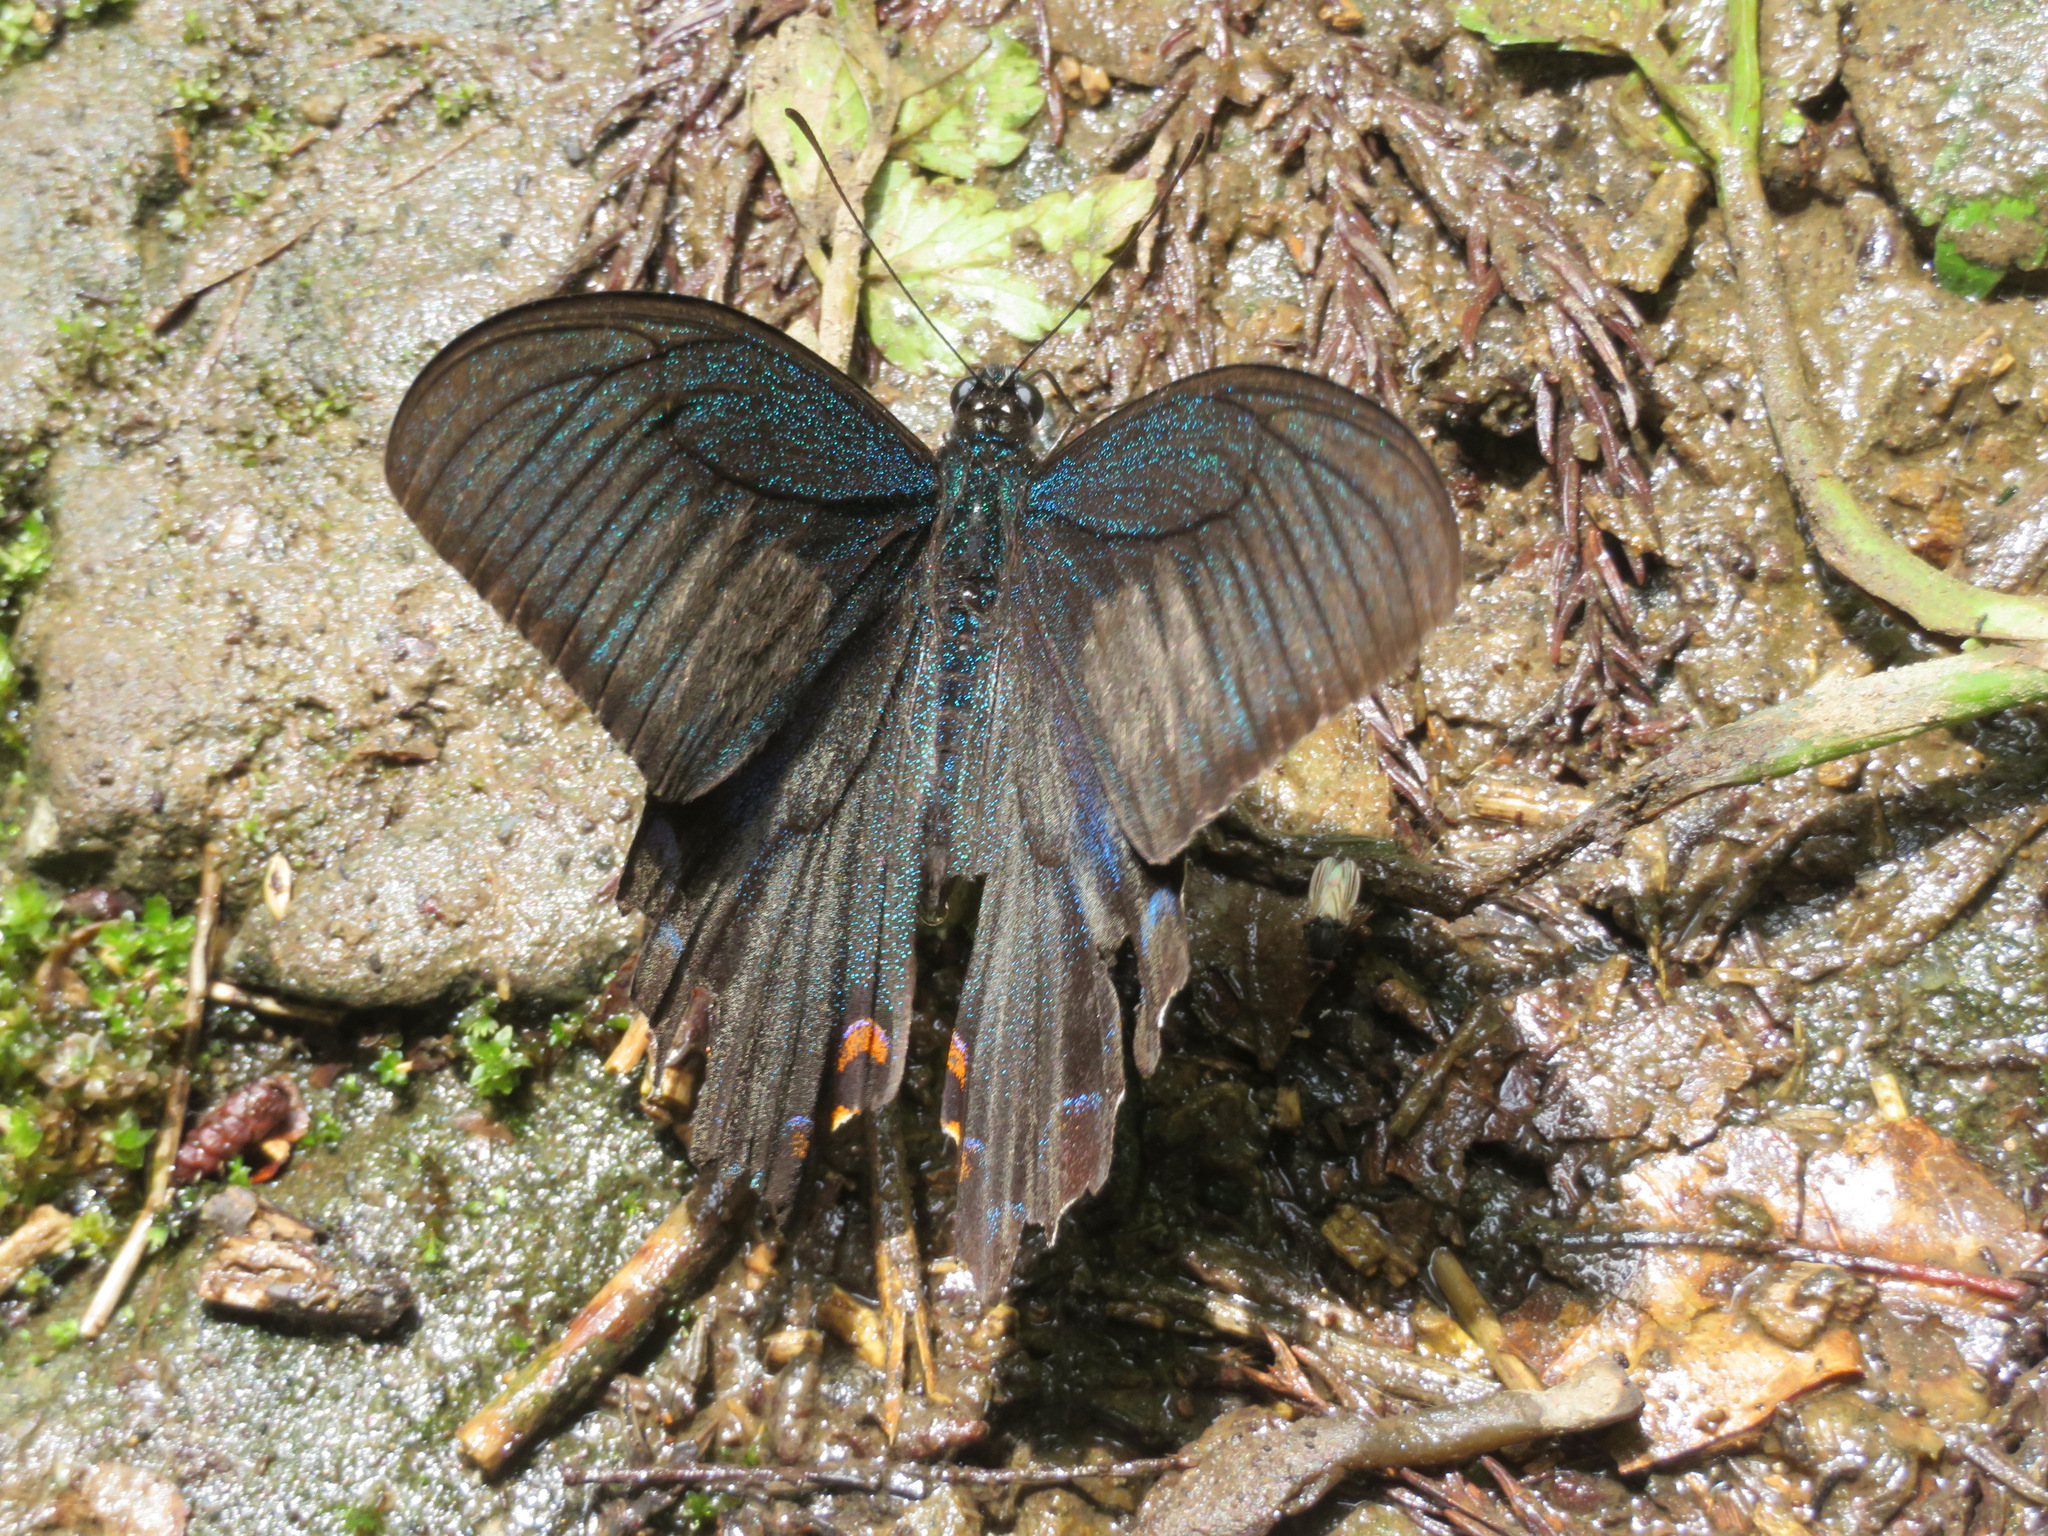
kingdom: Animalia
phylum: Arthropoda
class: Insecta
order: Lepidoptera
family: Papilionidae
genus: Papilio
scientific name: Papilio dehaanii
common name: Japanese peacock swallowtail
